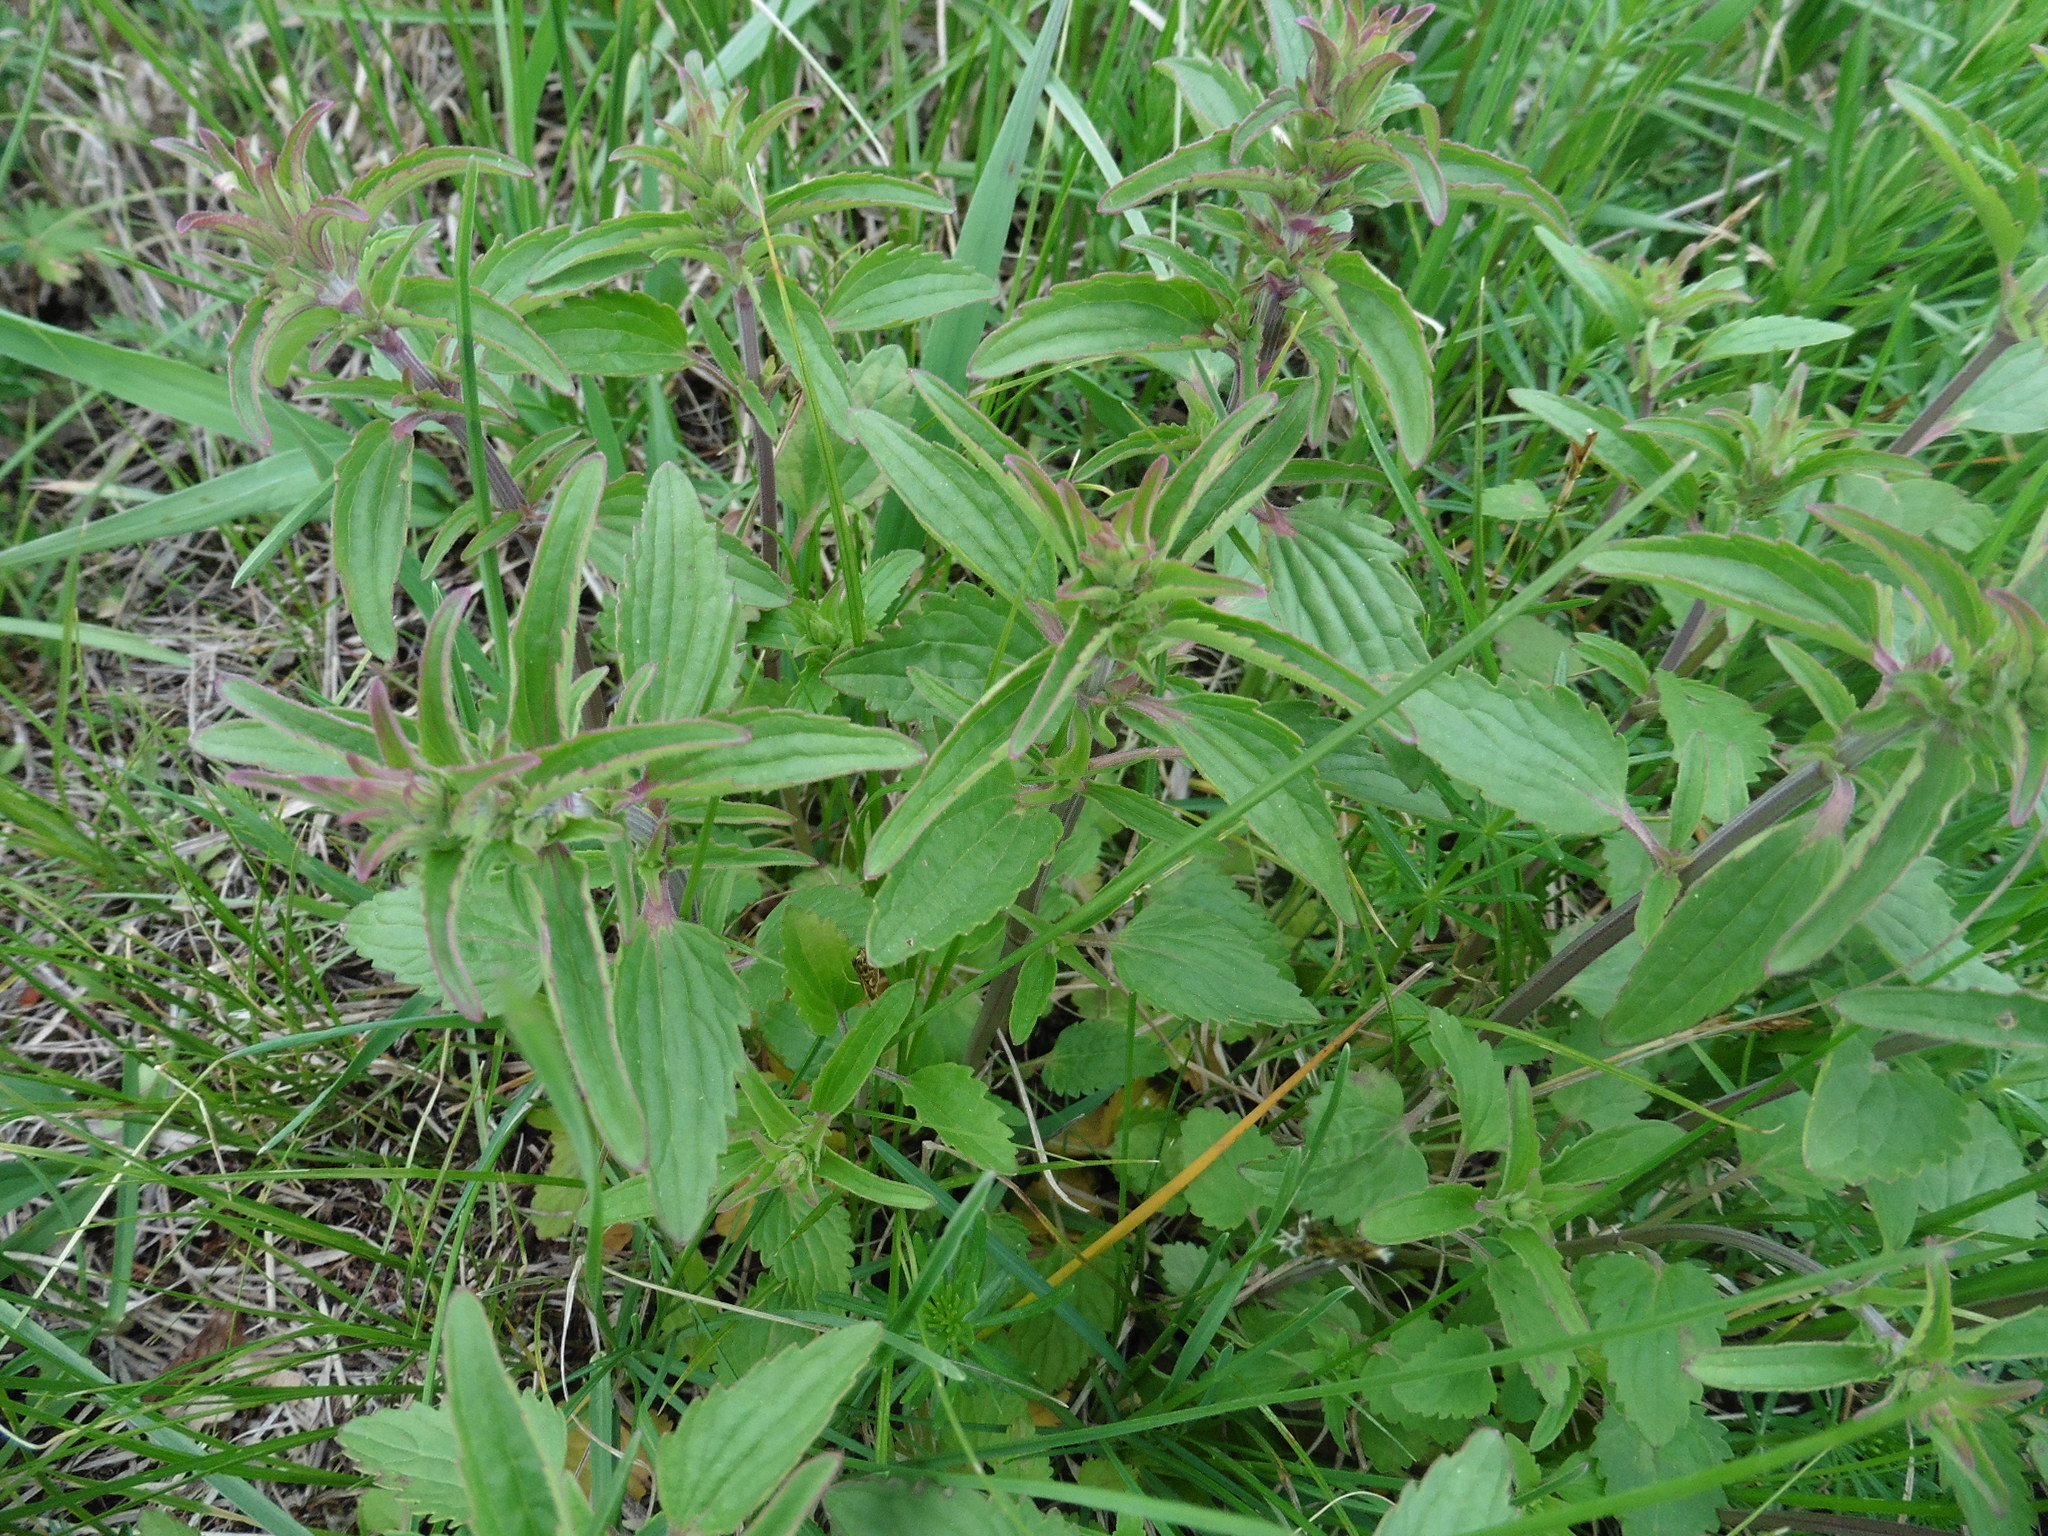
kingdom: Plantae
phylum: Tracheophyta
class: Magnoliopsida
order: Lamiales
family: Lamiaceae
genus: Dracocephalum
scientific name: Dracocephalum thymiflorum
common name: Thymeleaf dragonhead
